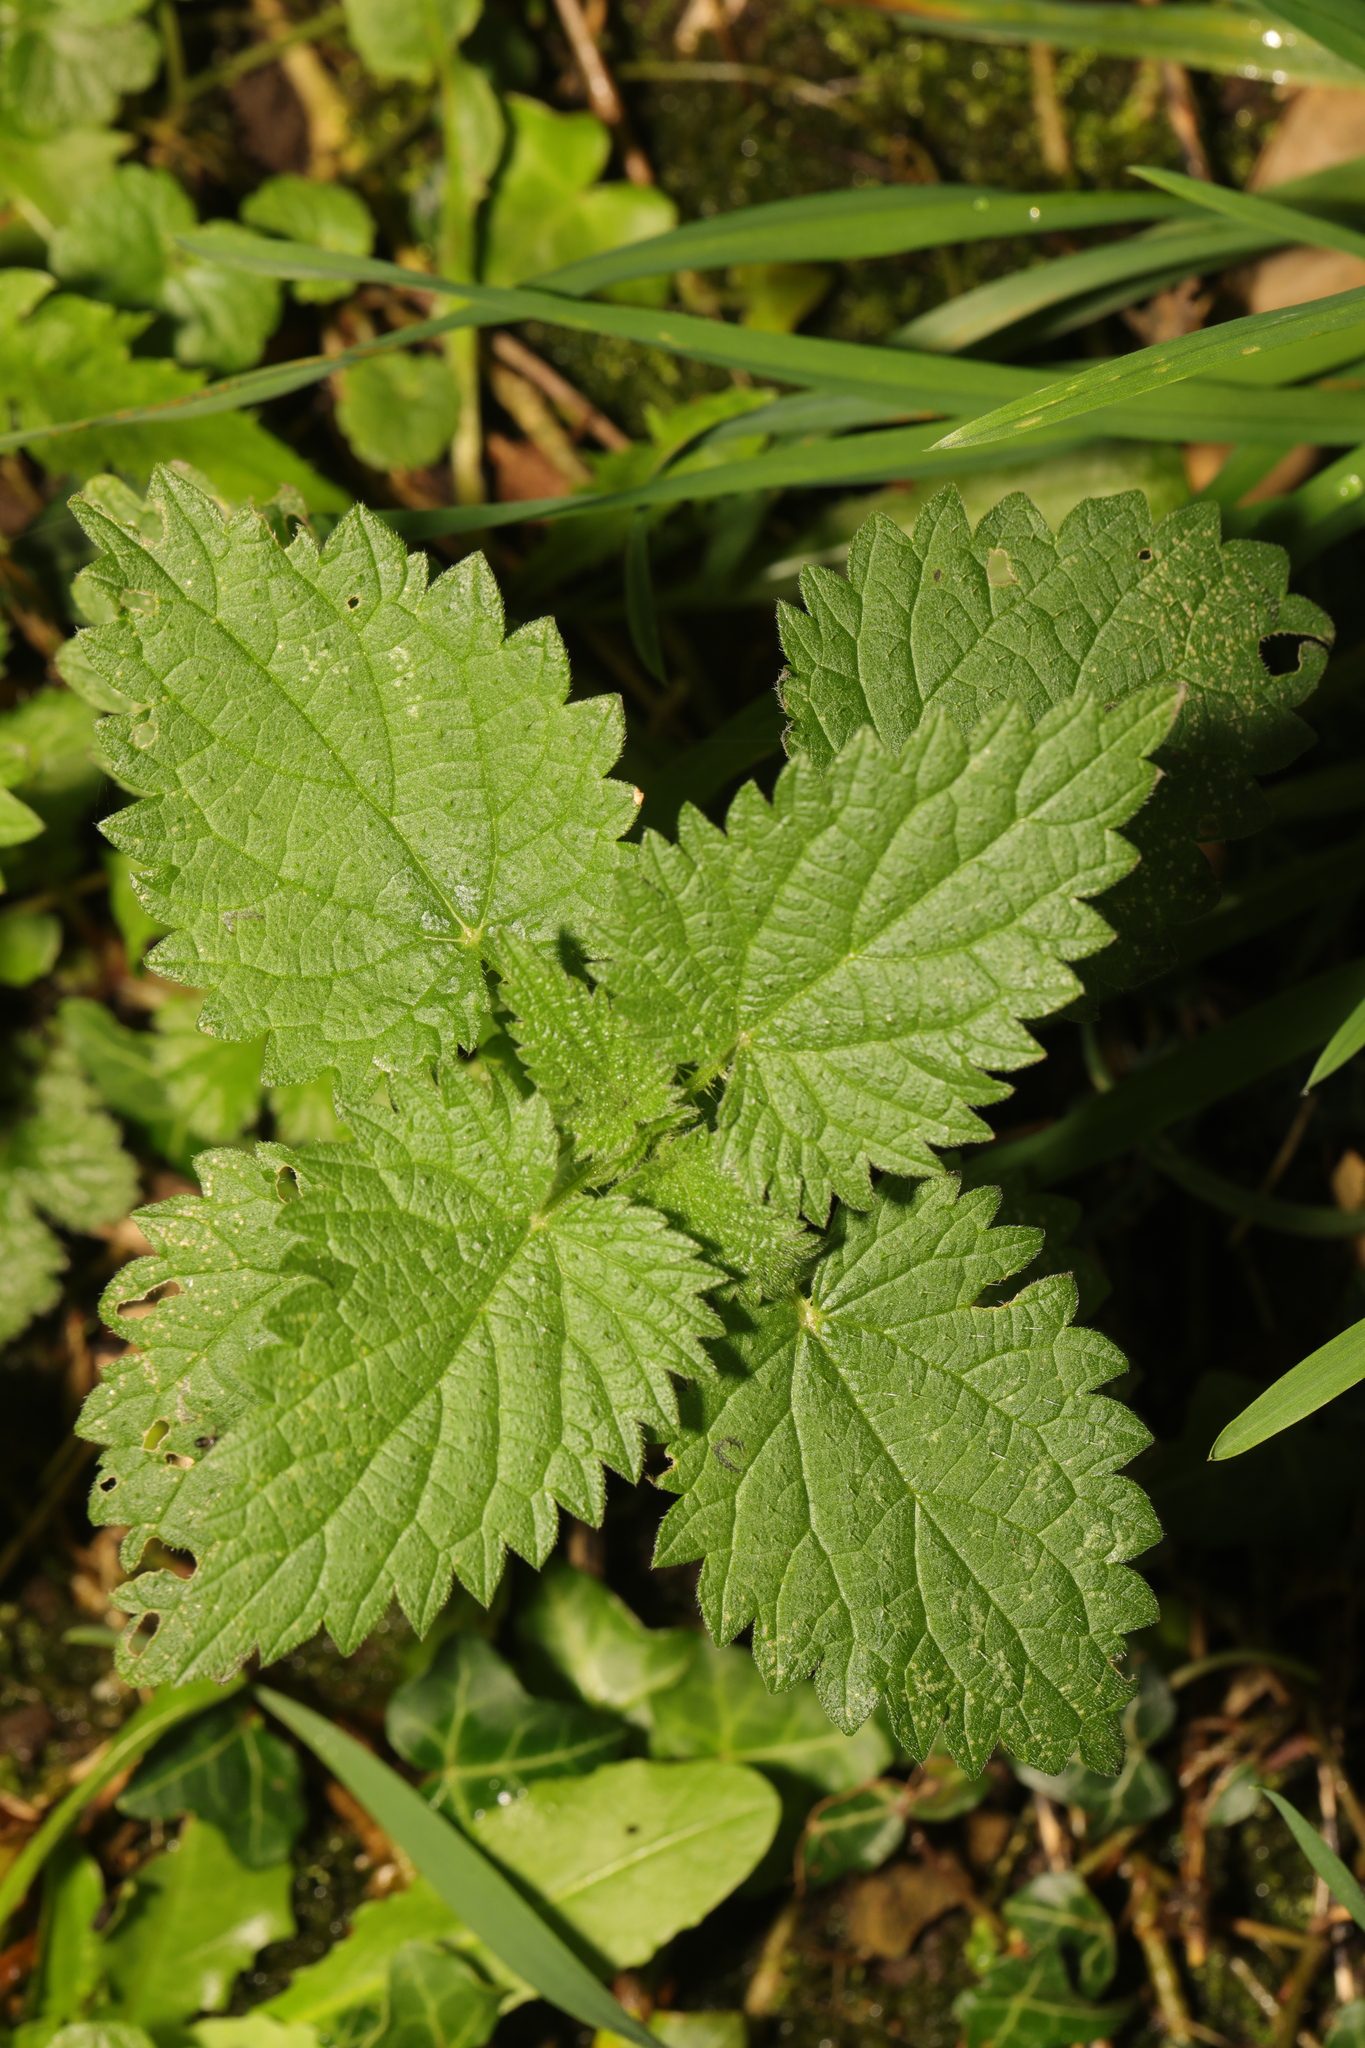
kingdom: Plantae
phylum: Tracheophyta
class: Magnoliopsida
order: Rosales
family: Urticaceae
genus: Urtica
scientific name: Urtica dioica
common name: Common nettle
